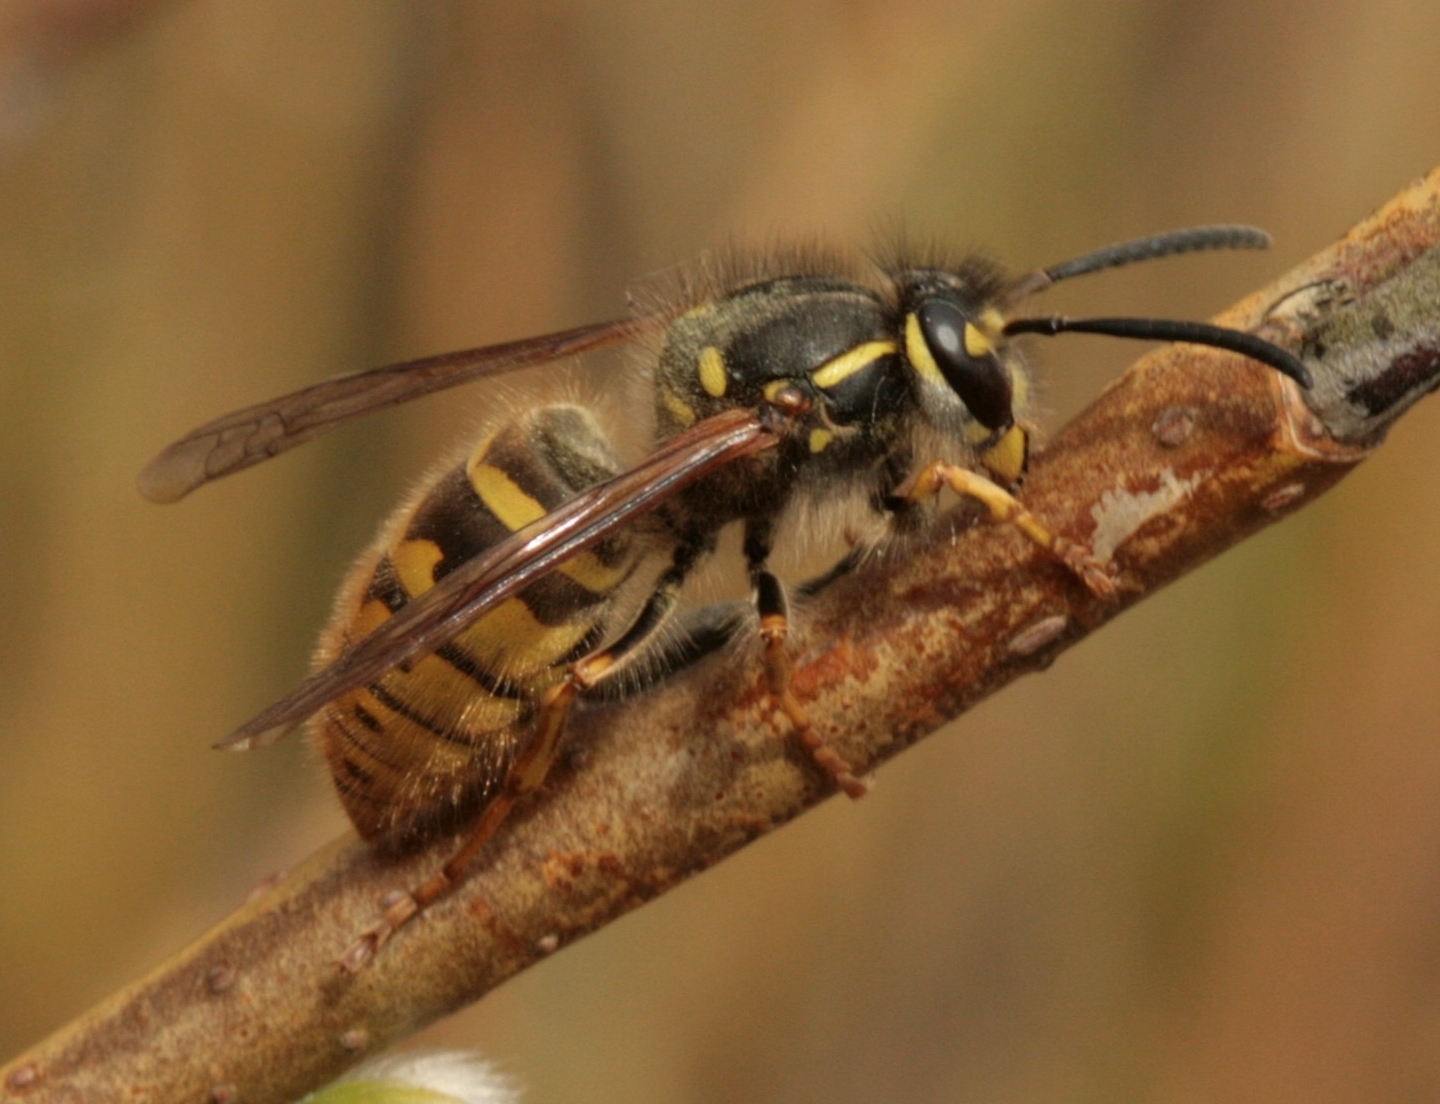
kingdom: Animalia
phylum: Arthropoda
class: Insecta
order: Hymenoptera
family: Vespidae
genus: Vespula
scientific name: Vespula vulgaris
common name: Common wasp
